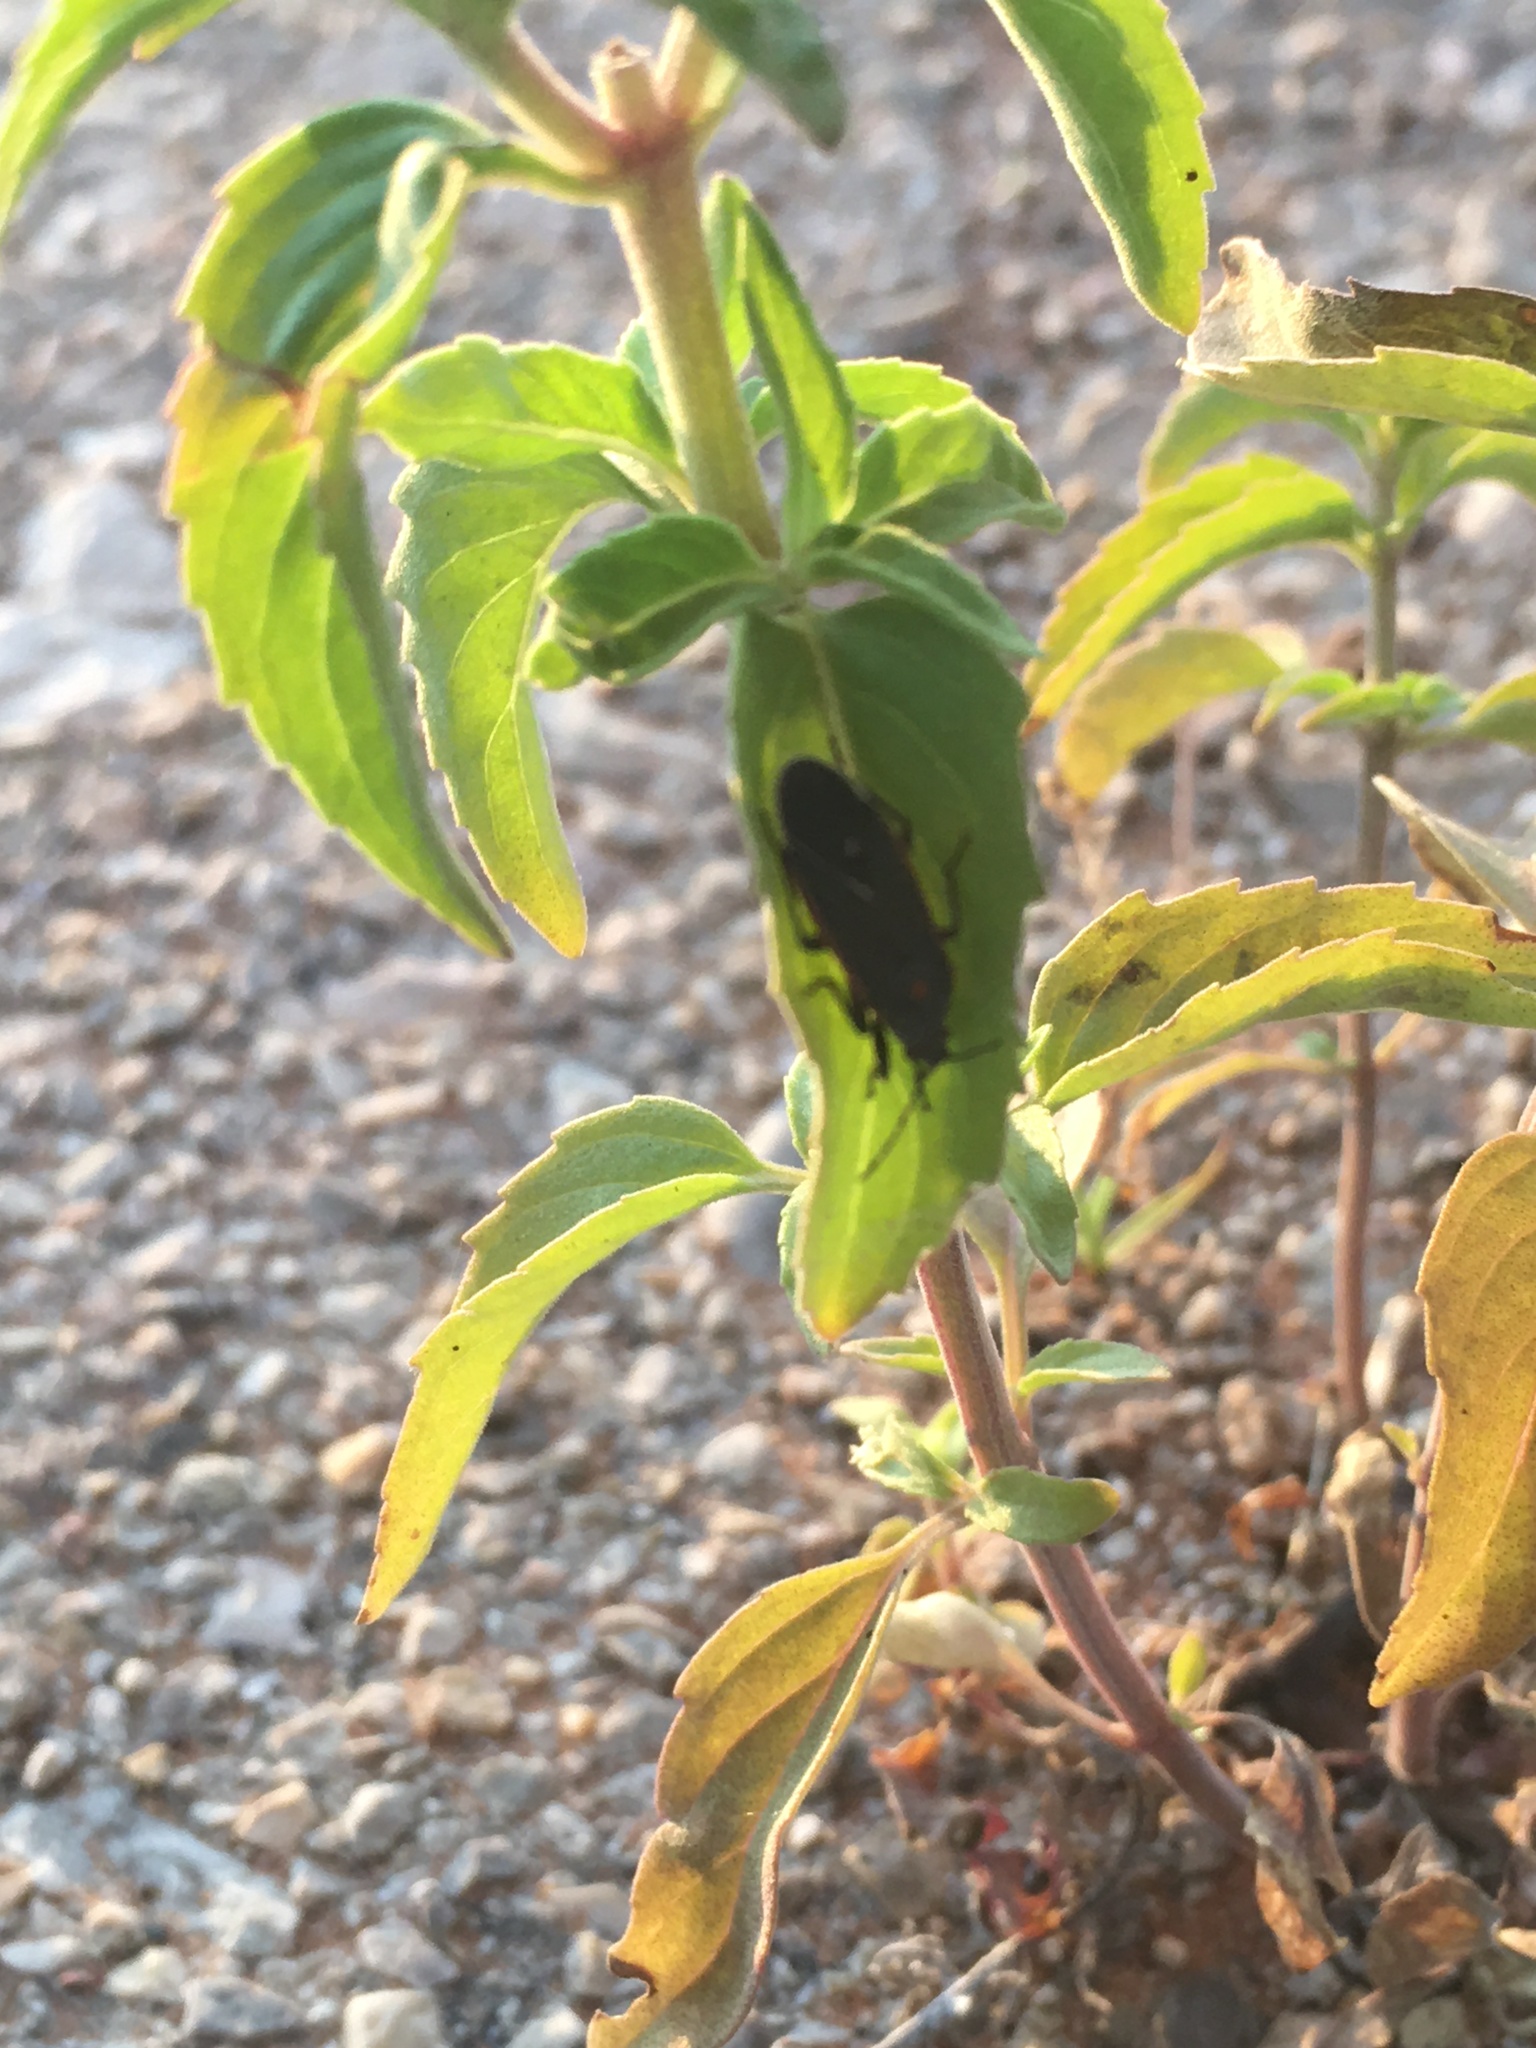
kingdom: Plantae
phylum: Tracheophyta
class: Magnoliopsida
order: Lamiales
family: Lamiaceae
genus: Monarda
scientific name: Monarda punctata
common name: Dotted monarda
